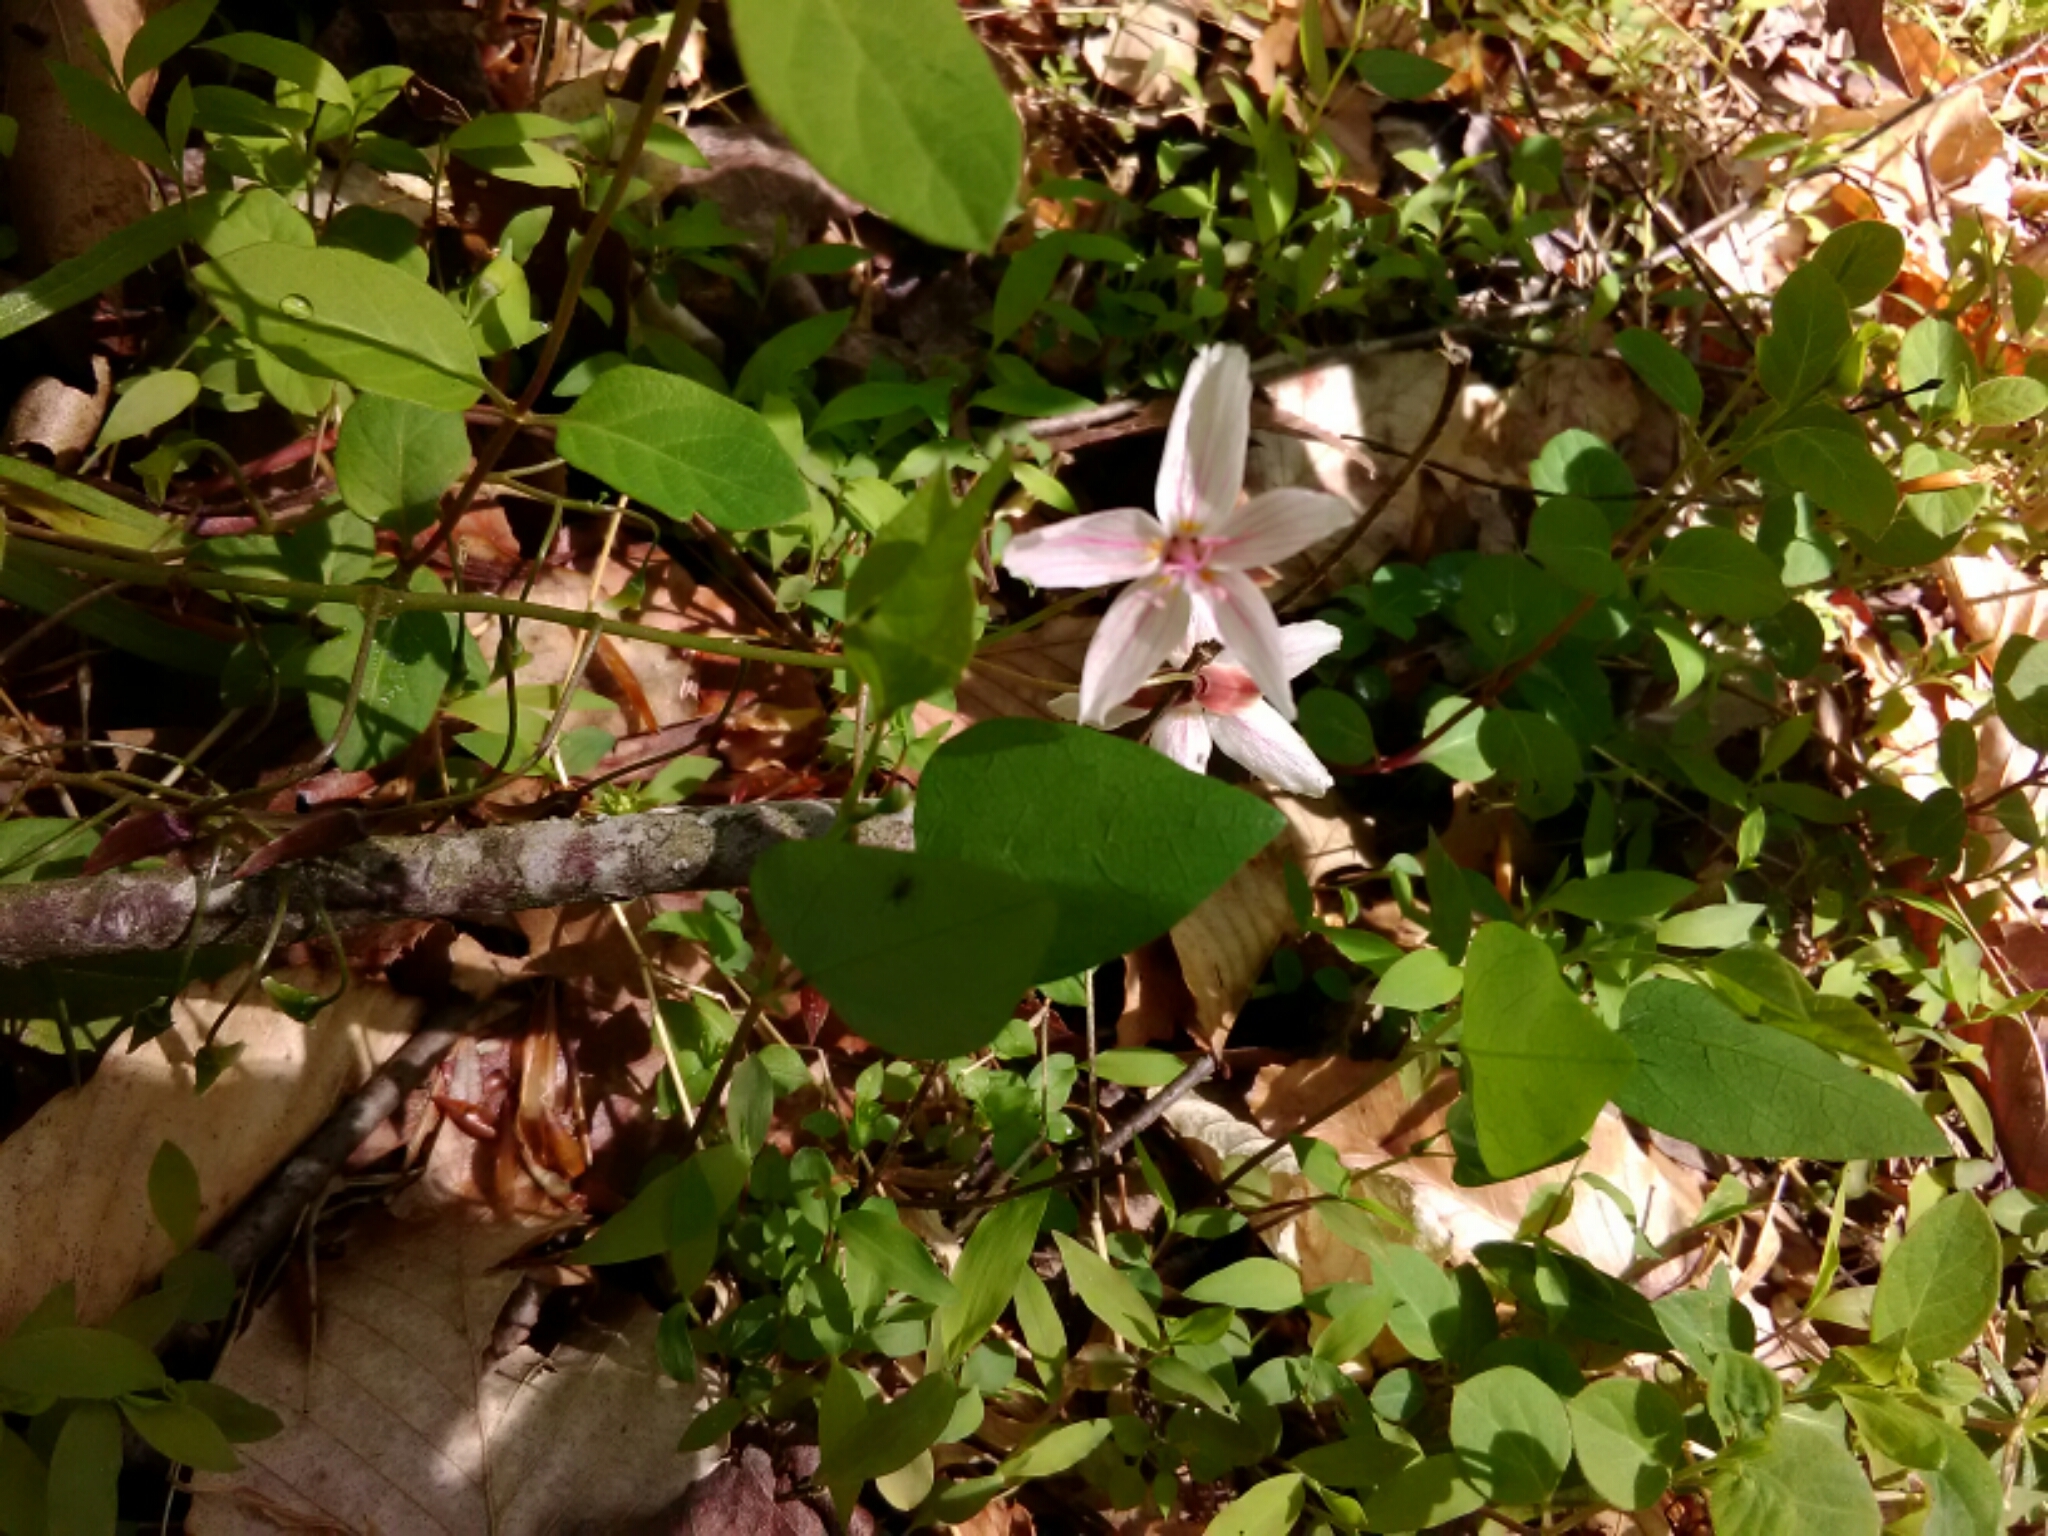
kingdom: Plantae
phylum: Tracheophyta
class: Magnoliopsida
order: Caryophyllales
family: Montiaceae
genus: Claytonia
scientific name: Claytonia virginica
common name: Virginia springbeauty
